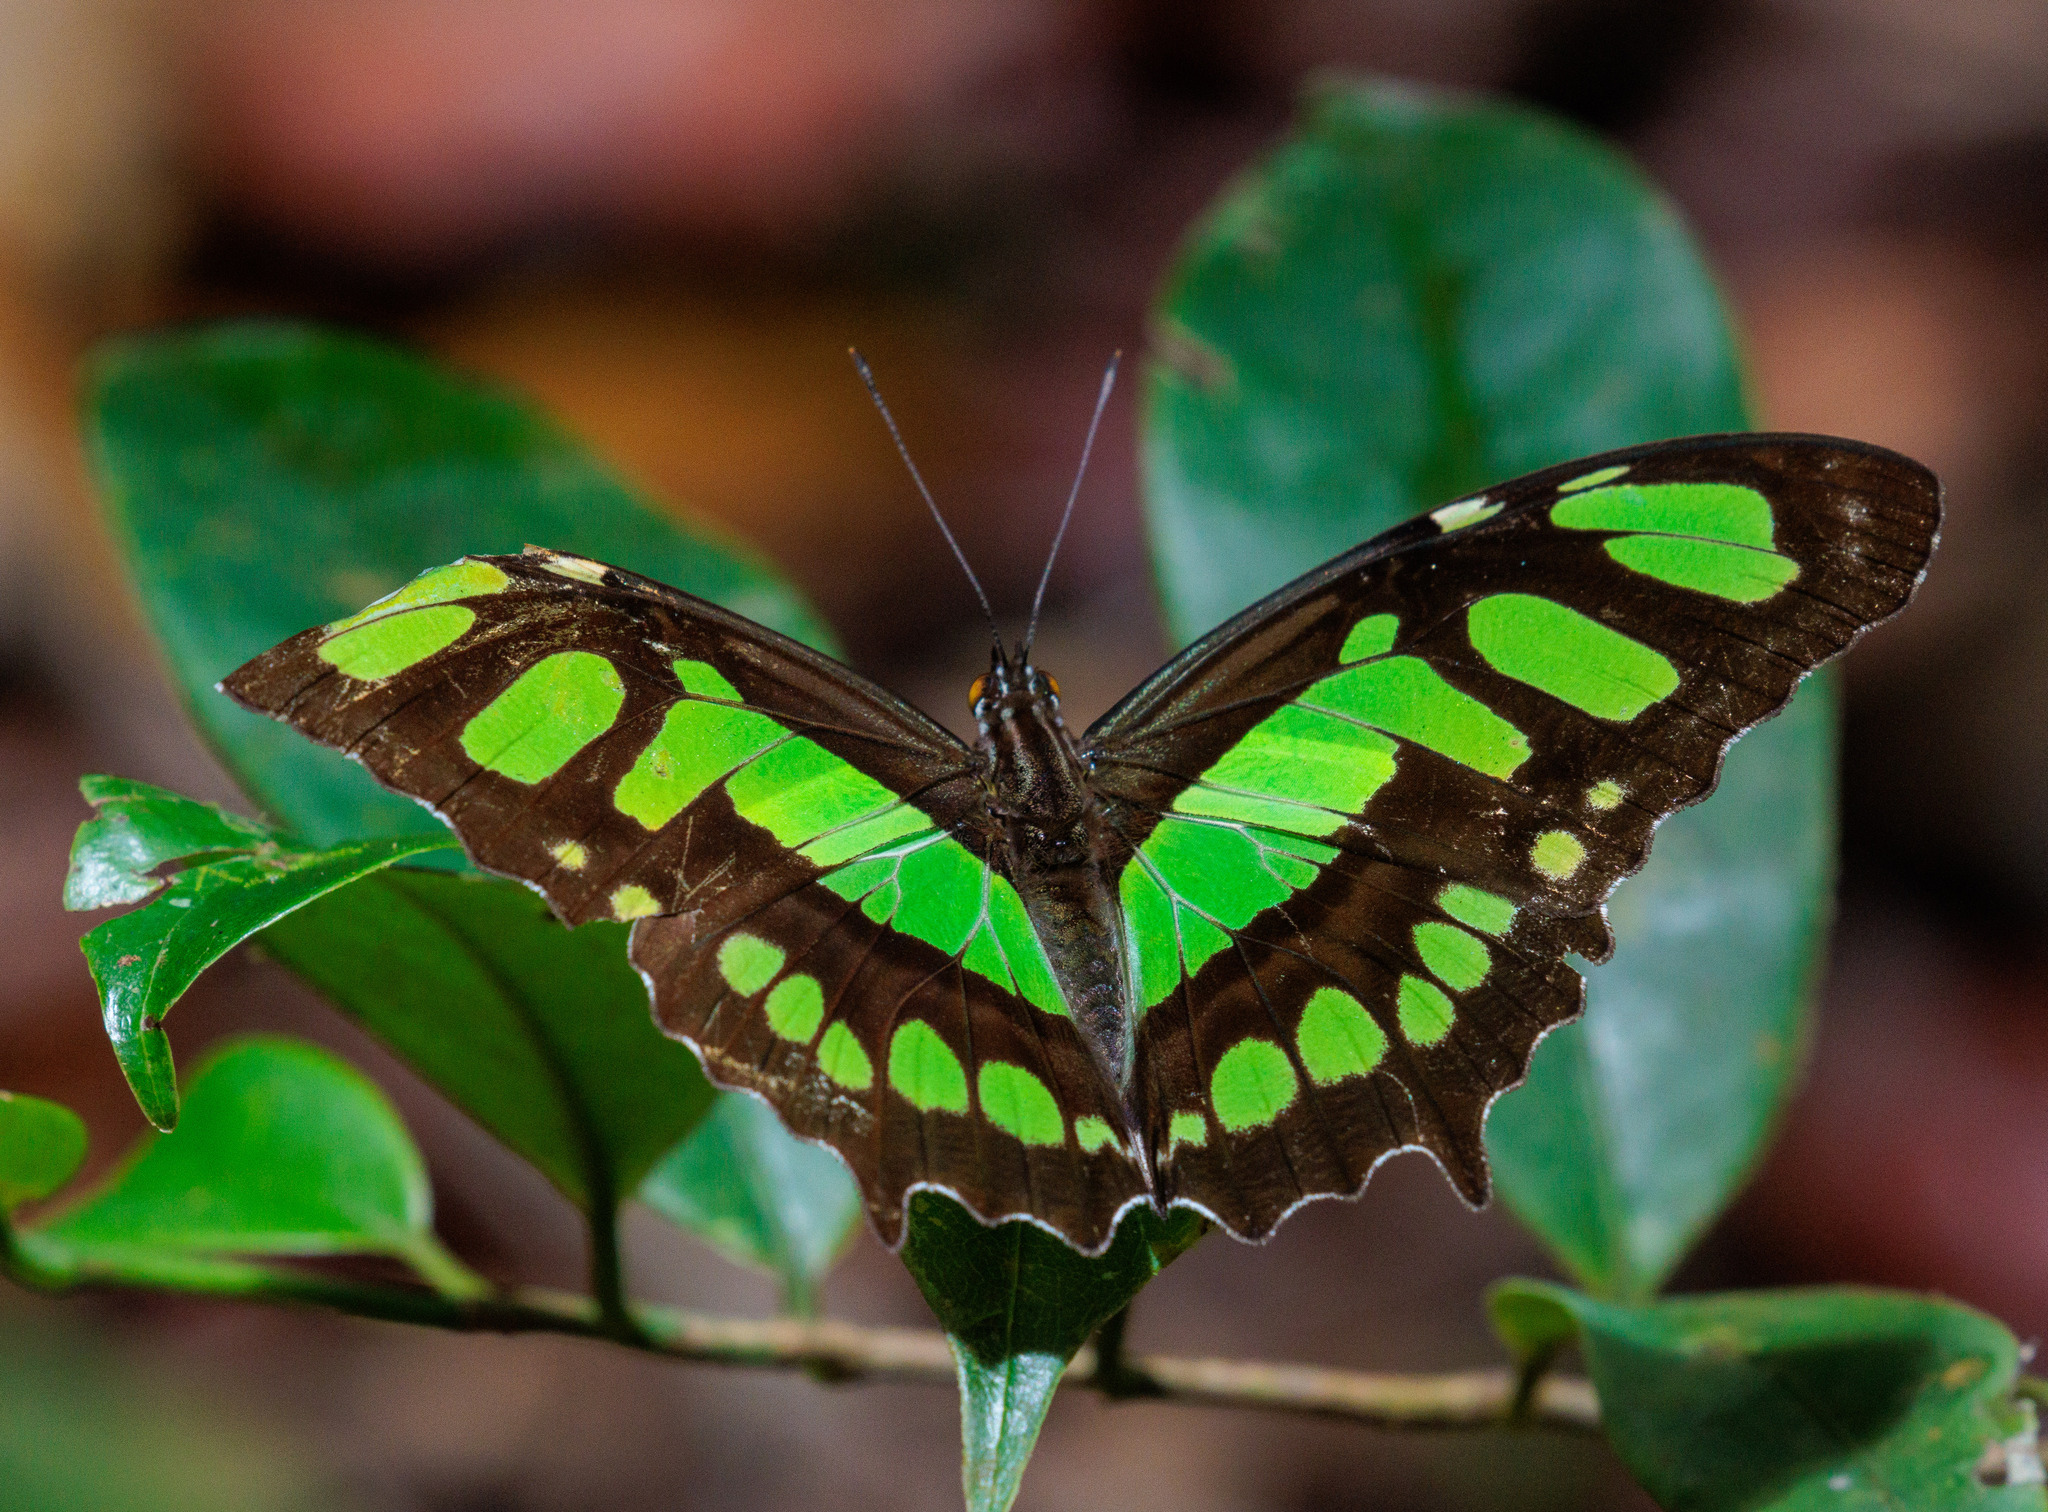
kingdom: Animalia
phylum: Arthropoda
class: Insecta
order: Lepidoptera
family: Nymphalidae
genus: Siproeta
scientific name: Siproeta stelenes
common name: Malachite
